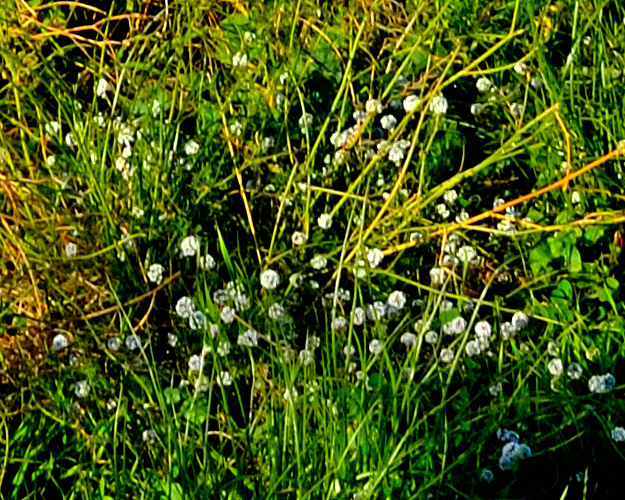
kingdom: Plantae
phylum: Tracheophyta
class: Magnoliopsida
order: Fabales
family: Fabaceae
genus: Trifolium
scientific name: Trifolium repens
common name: White clover
